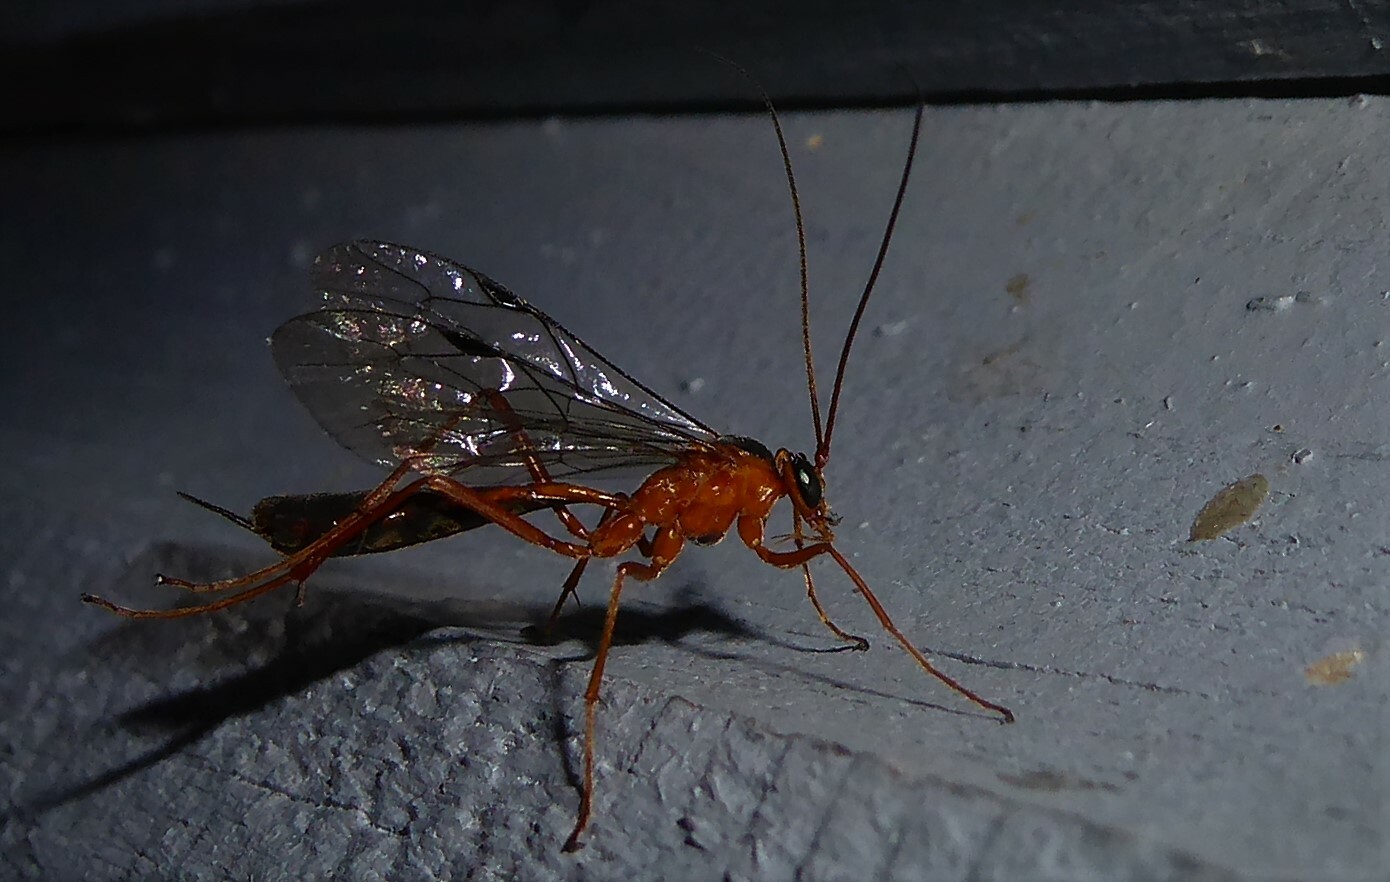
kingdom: Animalia
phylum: Arthropoda
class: Insecta
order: Hymenoptera
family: Ichneumonidae
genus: Netelia
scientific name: Netelia ephippiata
